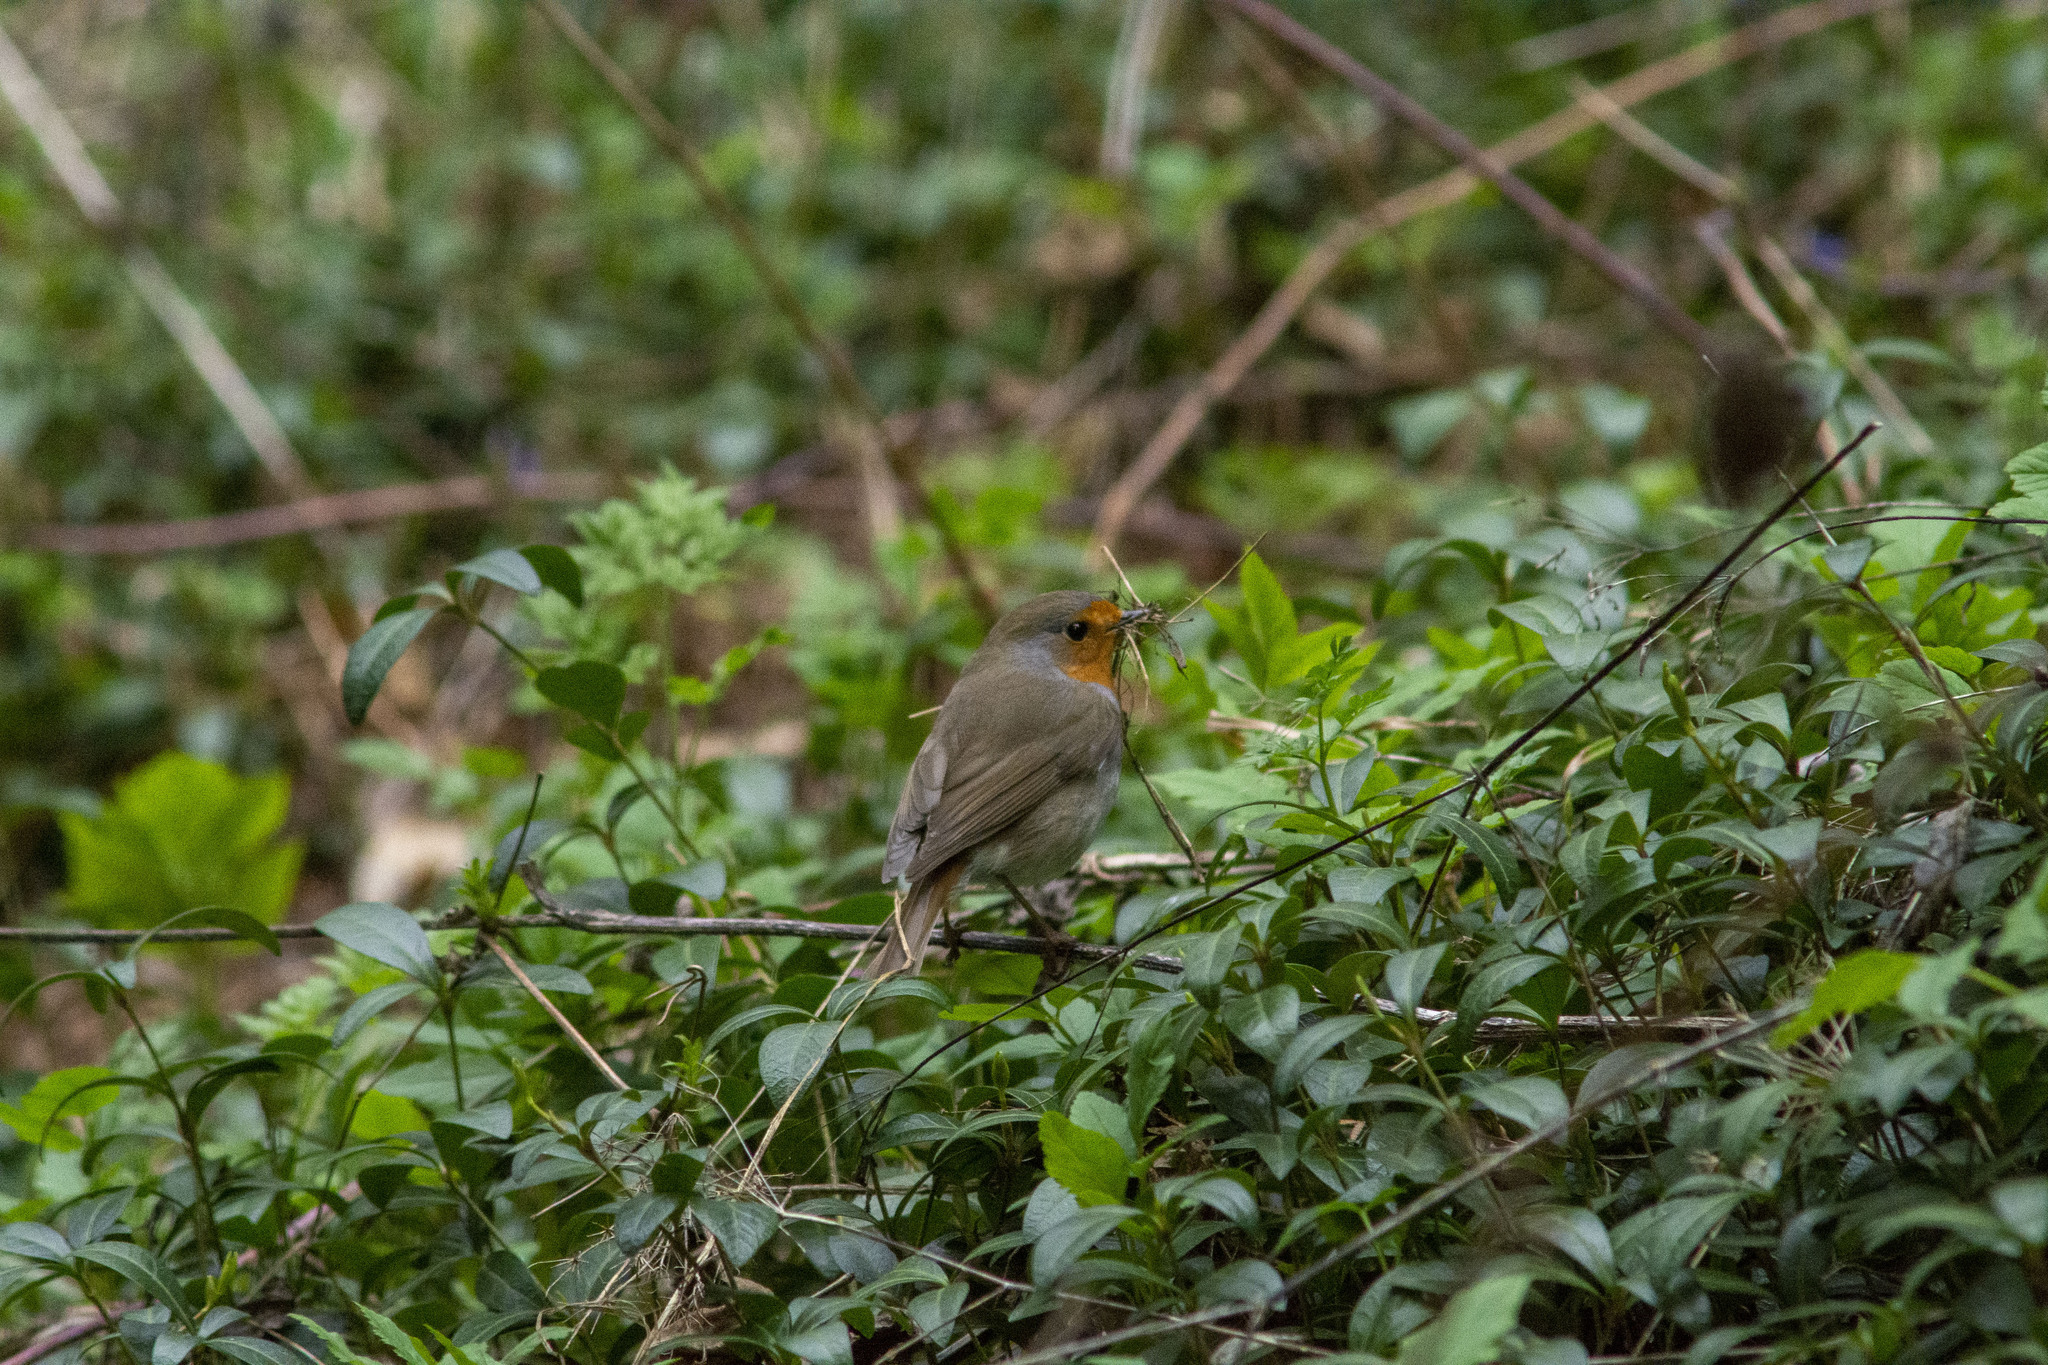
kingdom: Animalia
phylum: Chordata
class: Aves
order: Passeriformes
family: Muscicapidae
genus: Erithacus
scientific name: Erithacus rubecula
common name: European robin
